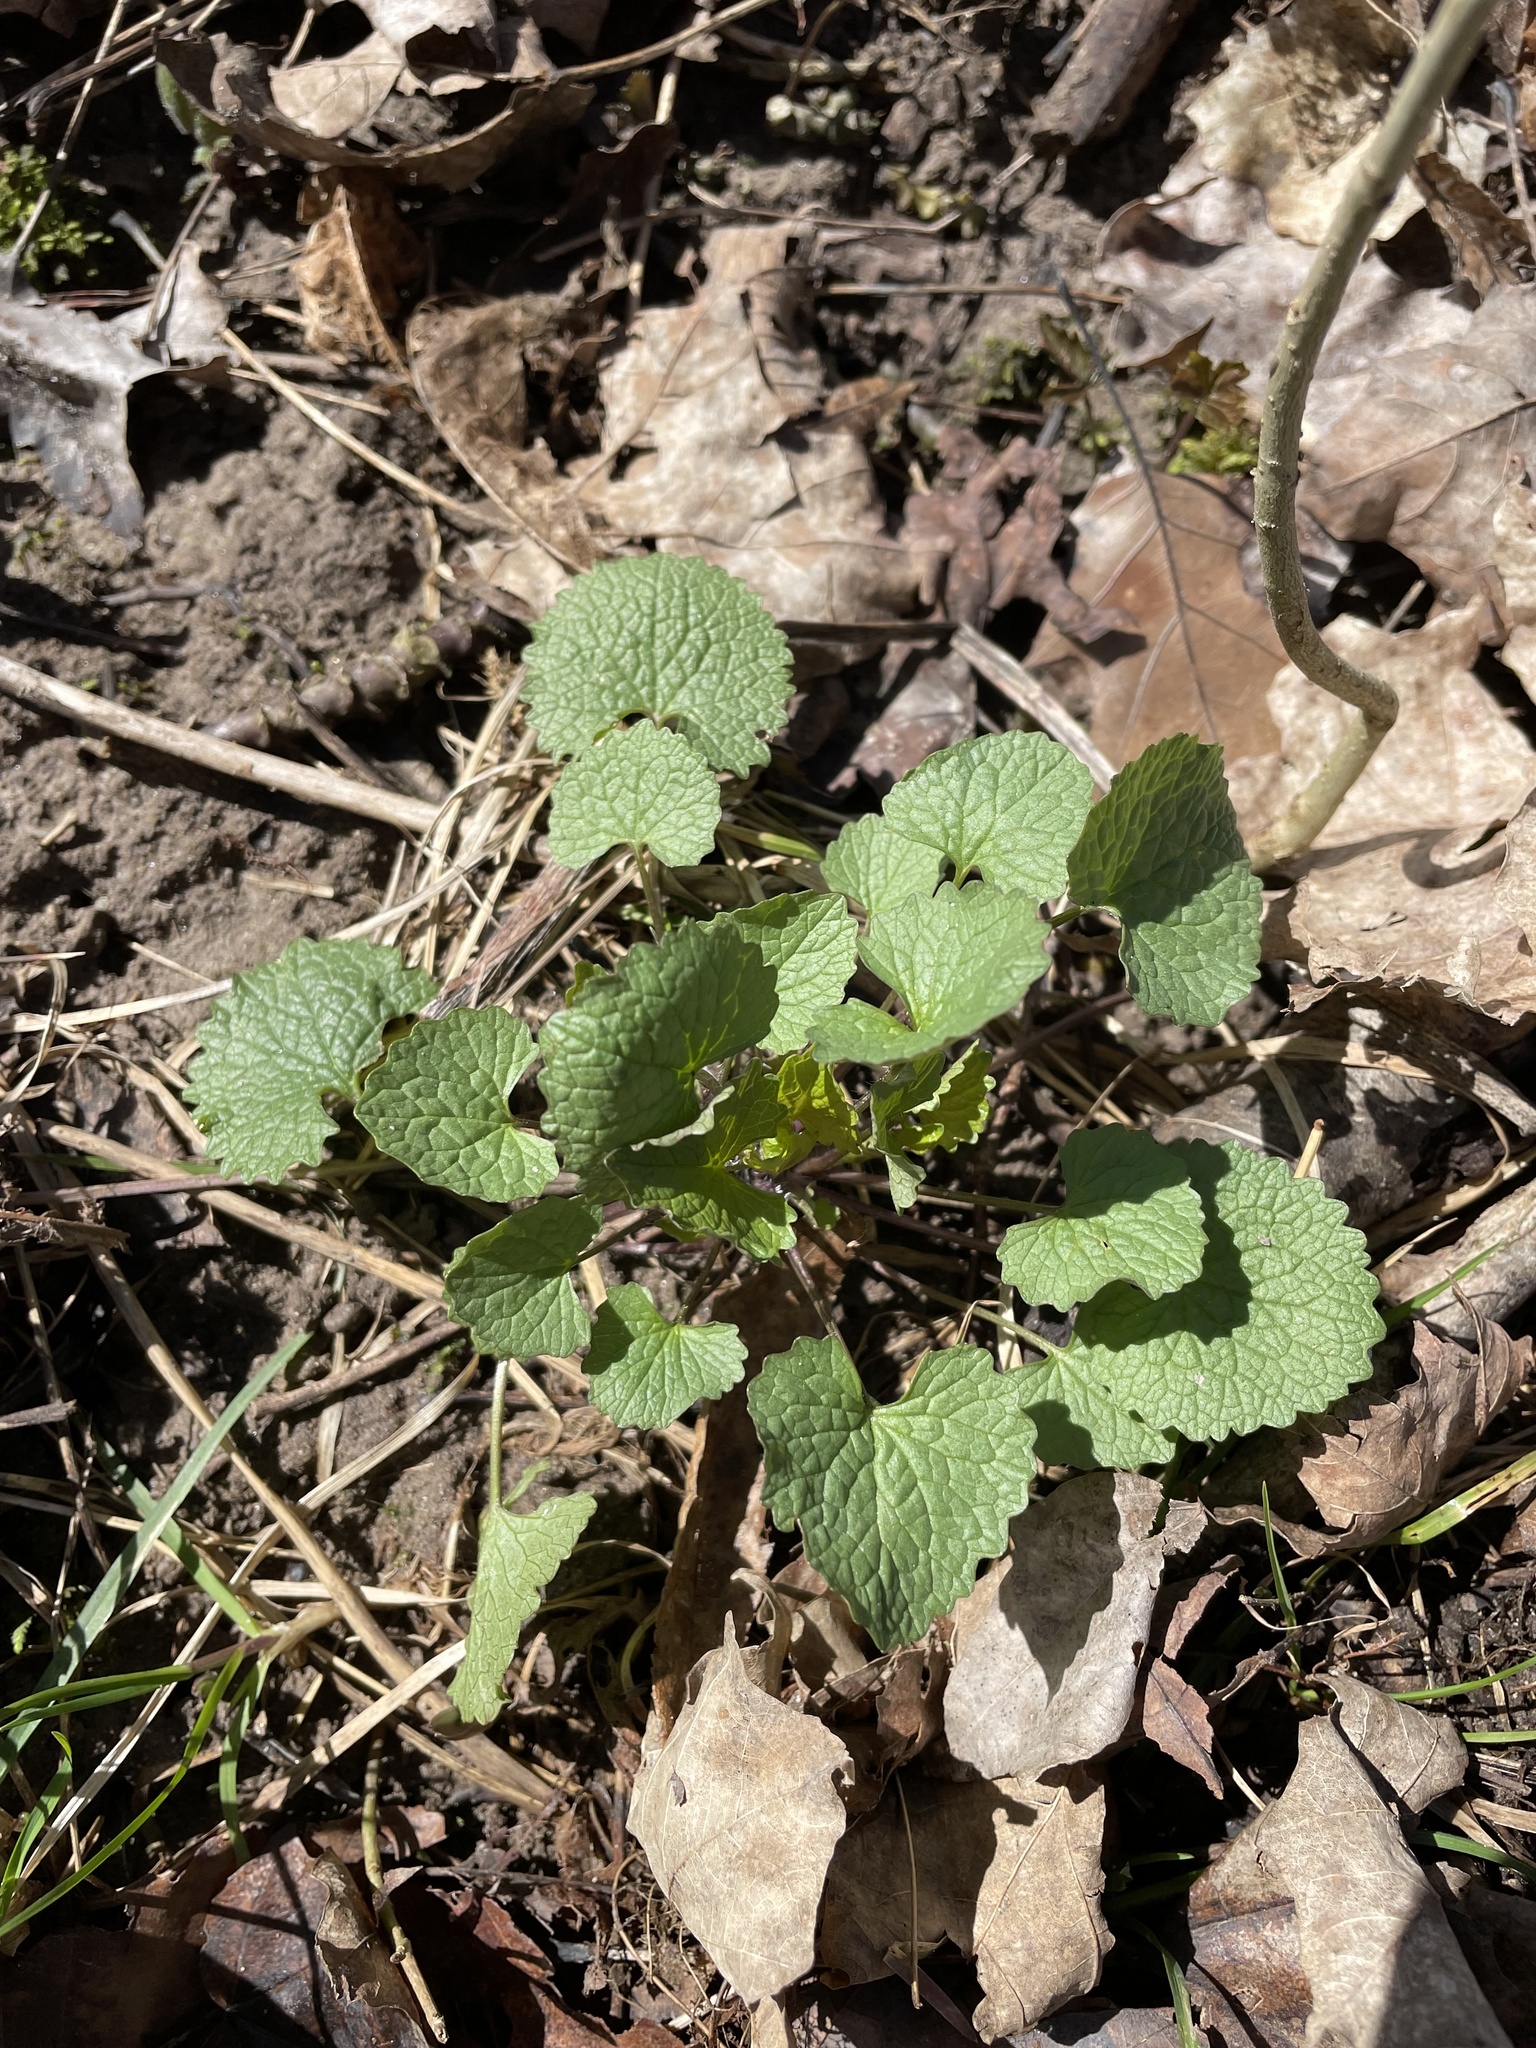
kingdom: Plantae
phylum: Tracheophyta
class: Magnoliopsida
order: Brassicales
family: Brassicaceae
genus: Alliaria
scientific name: Alliaria petiolata
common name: Garlic mustard
